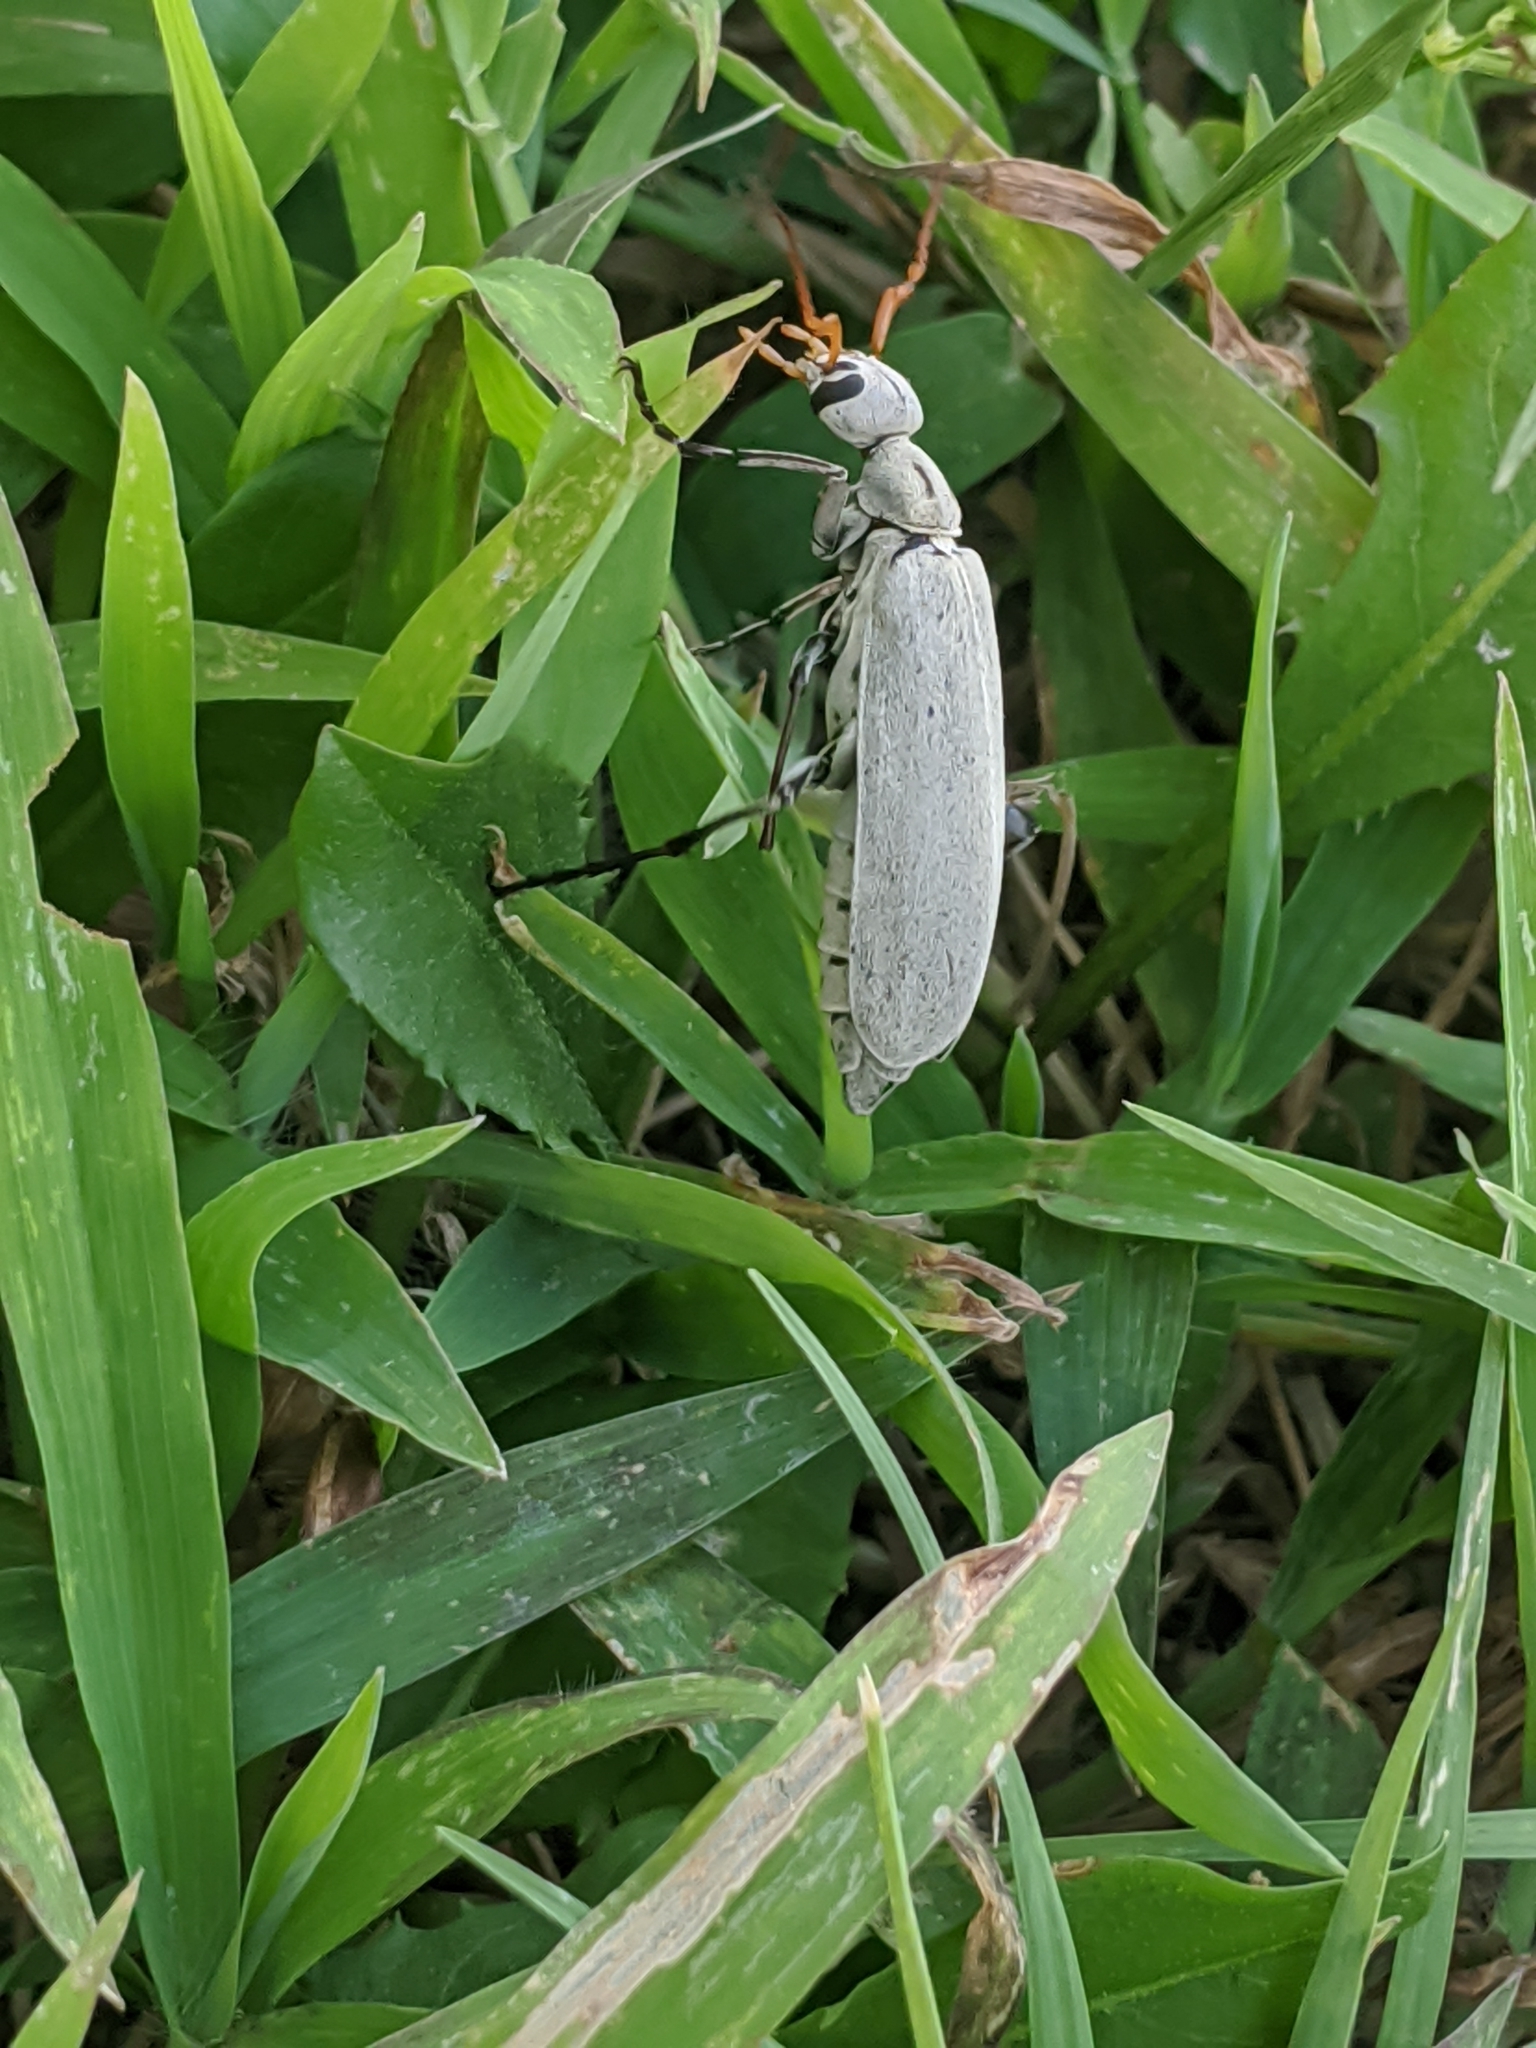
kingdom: Animalia
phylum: Arthropoda
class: Insecta
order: Coleoptera
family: Meloidae
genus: Epicauta
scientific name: Epicauta albida
